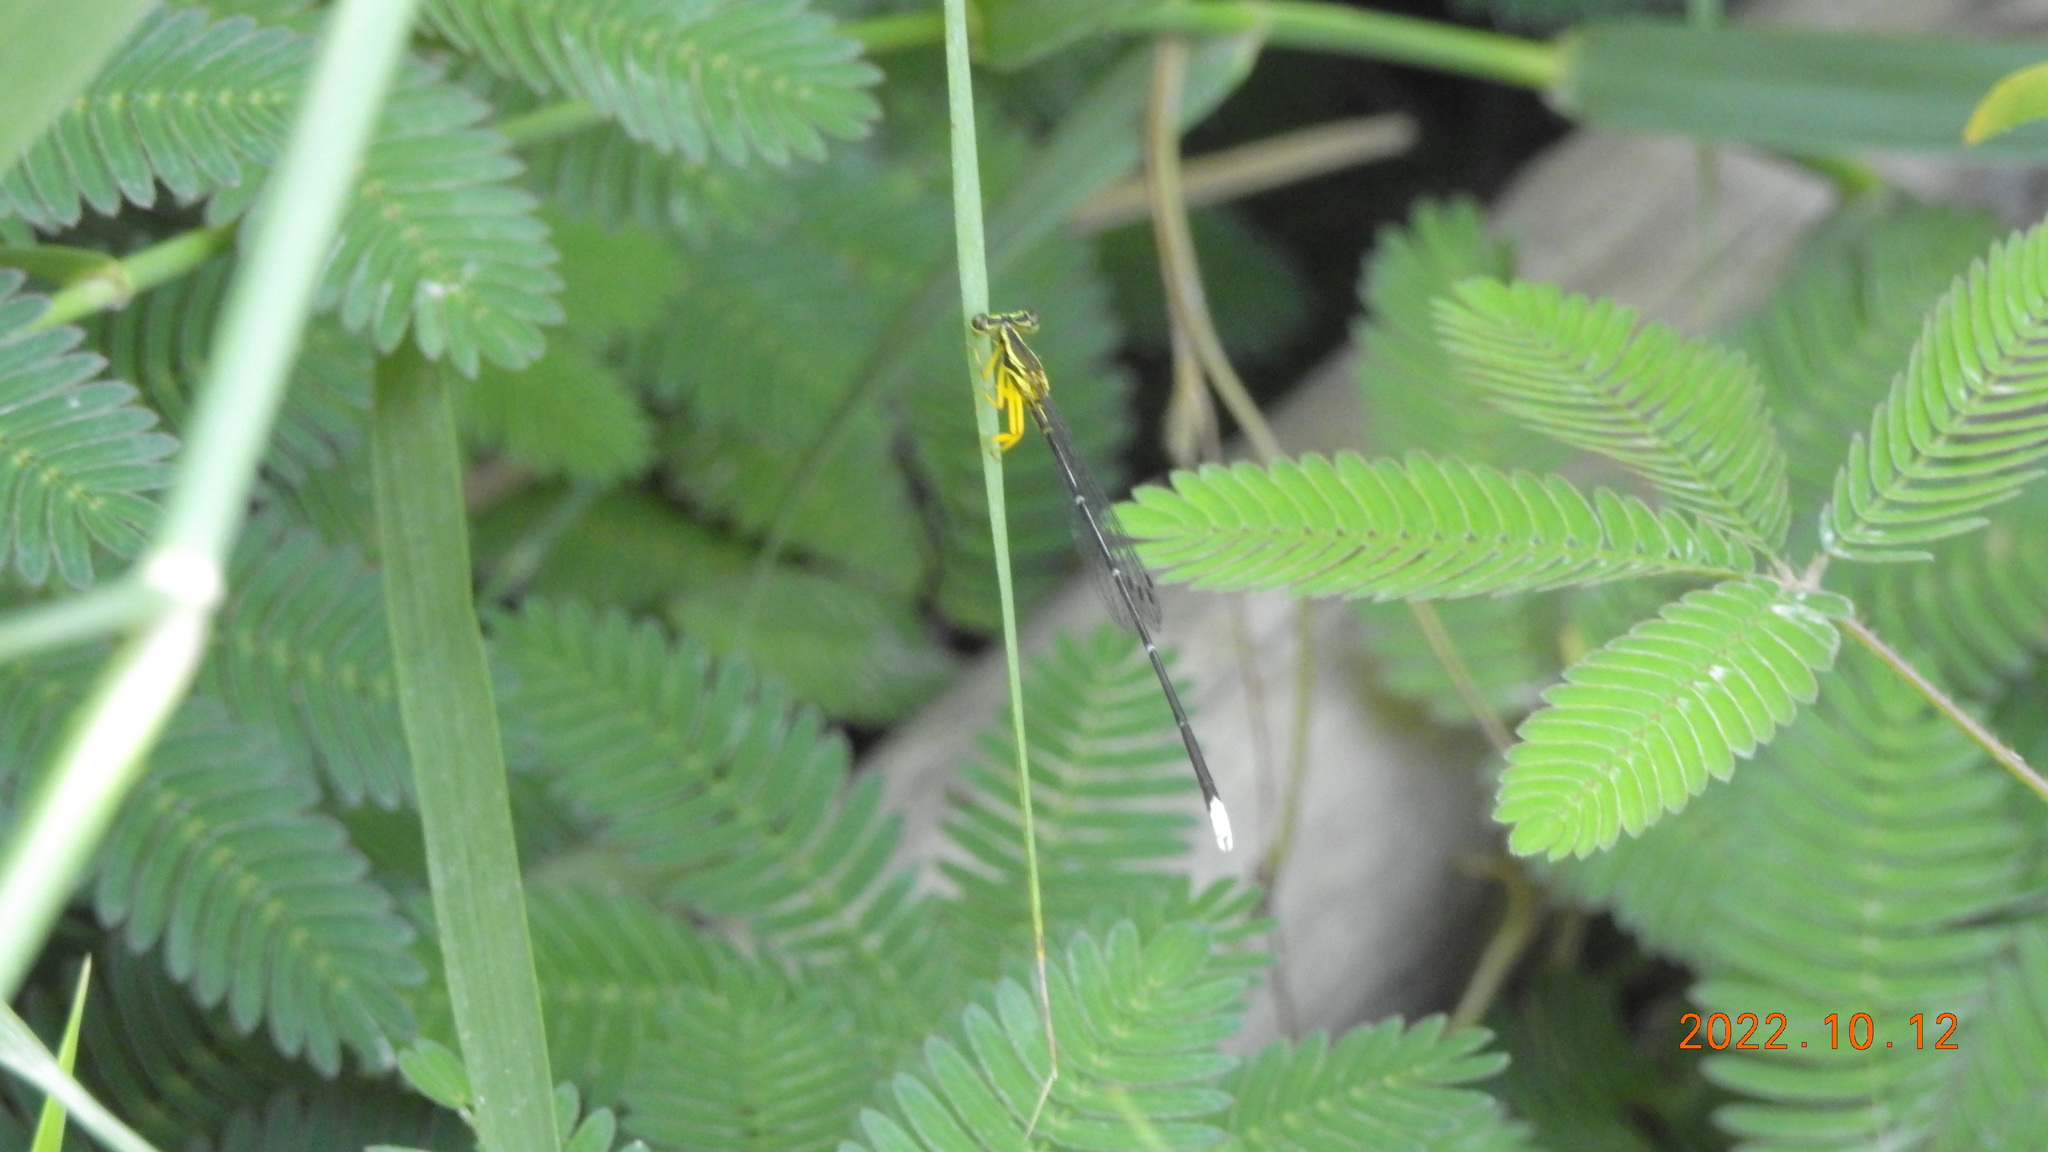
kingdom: Animalia
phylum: Arthropoda
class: Insecta
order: Odonata
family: Platycnemididae
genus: Copera
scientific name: Copera marginipes
